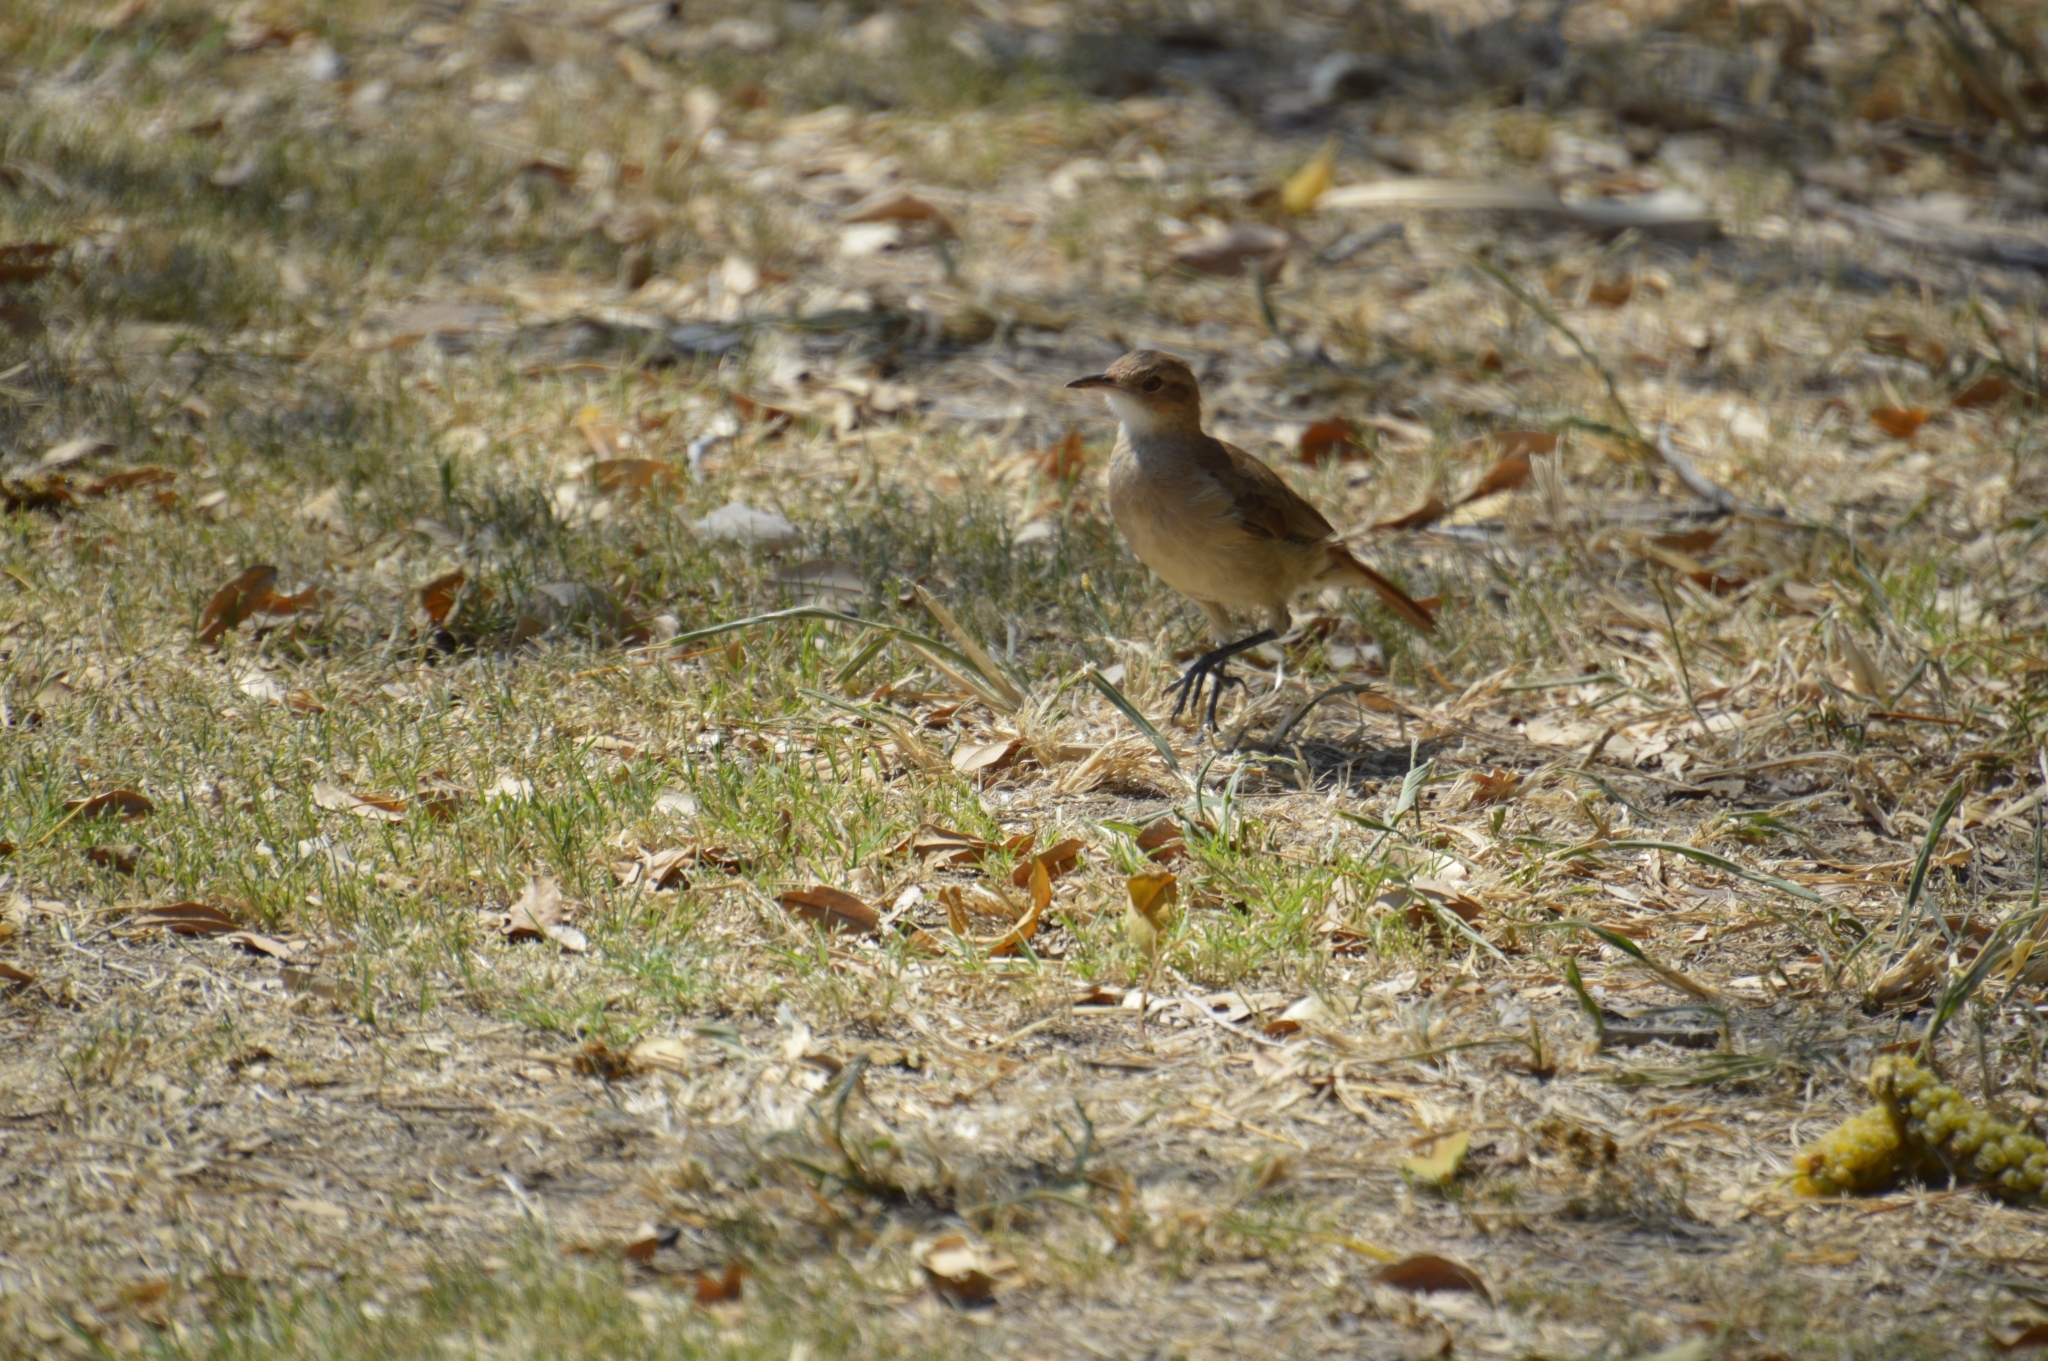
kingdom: Animalia
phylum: Chordata
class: Aves
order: Passeriformes
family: Furnariidae
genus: Furnarius
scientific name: Furnarius rufus
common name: Rufous hornero
